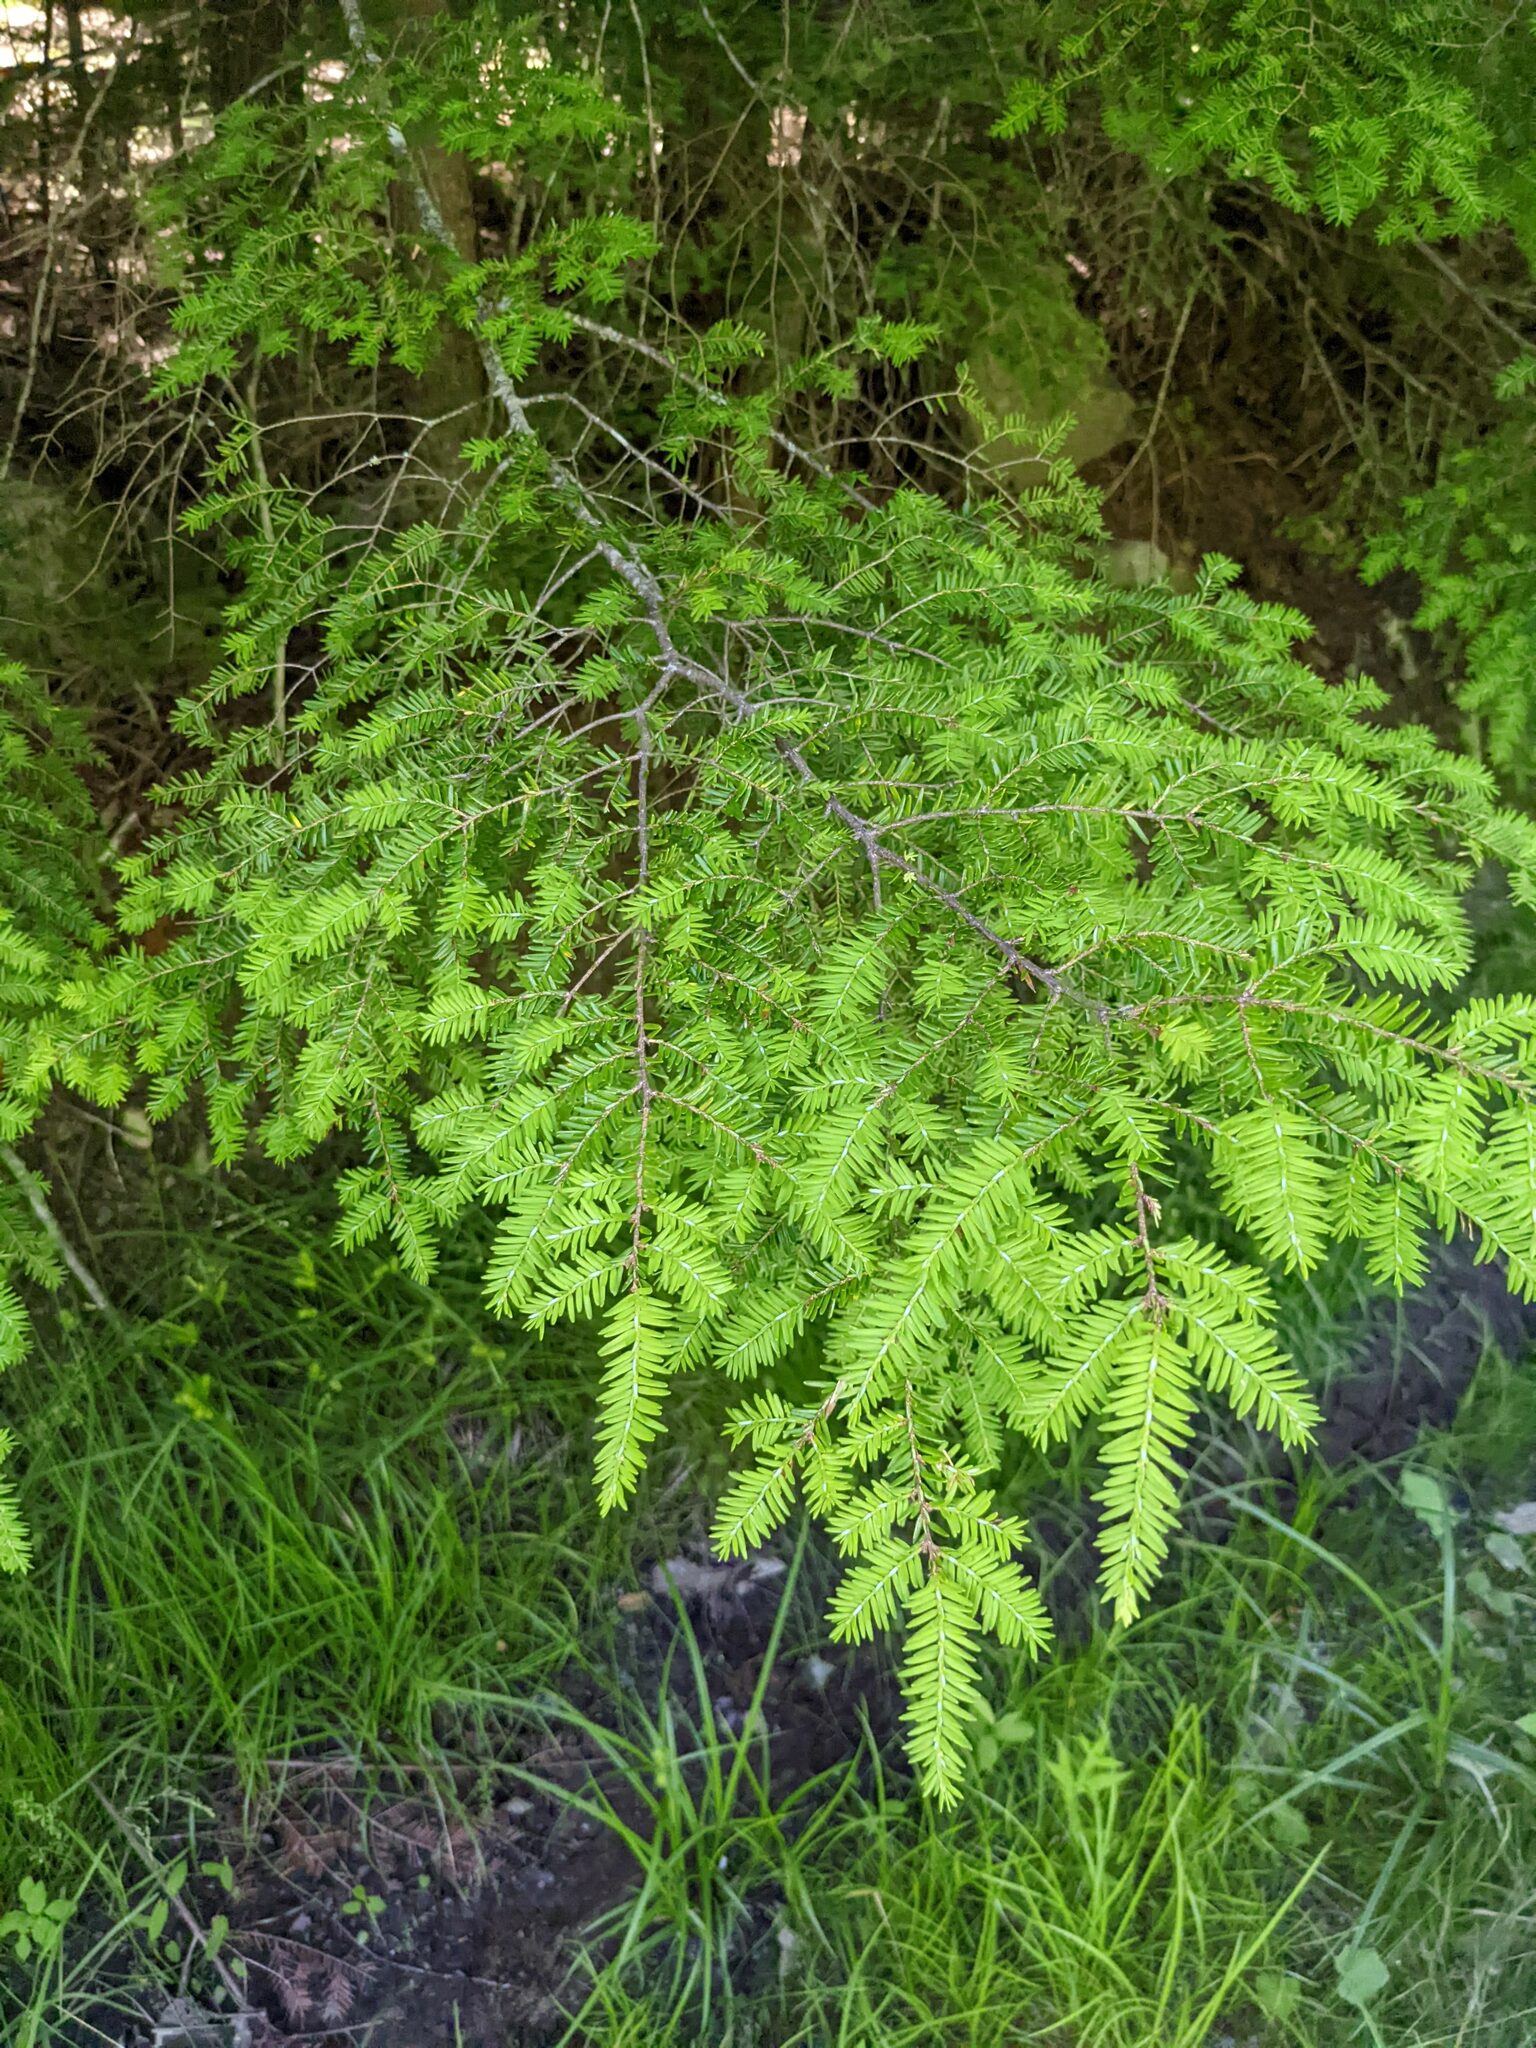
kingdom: Plantae
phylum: Tracheophyta
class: Pinopsida
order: Pinales
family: Pinaceae
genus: Tsuga
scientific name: Tsuga canadensis
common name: Eastern hemlock
